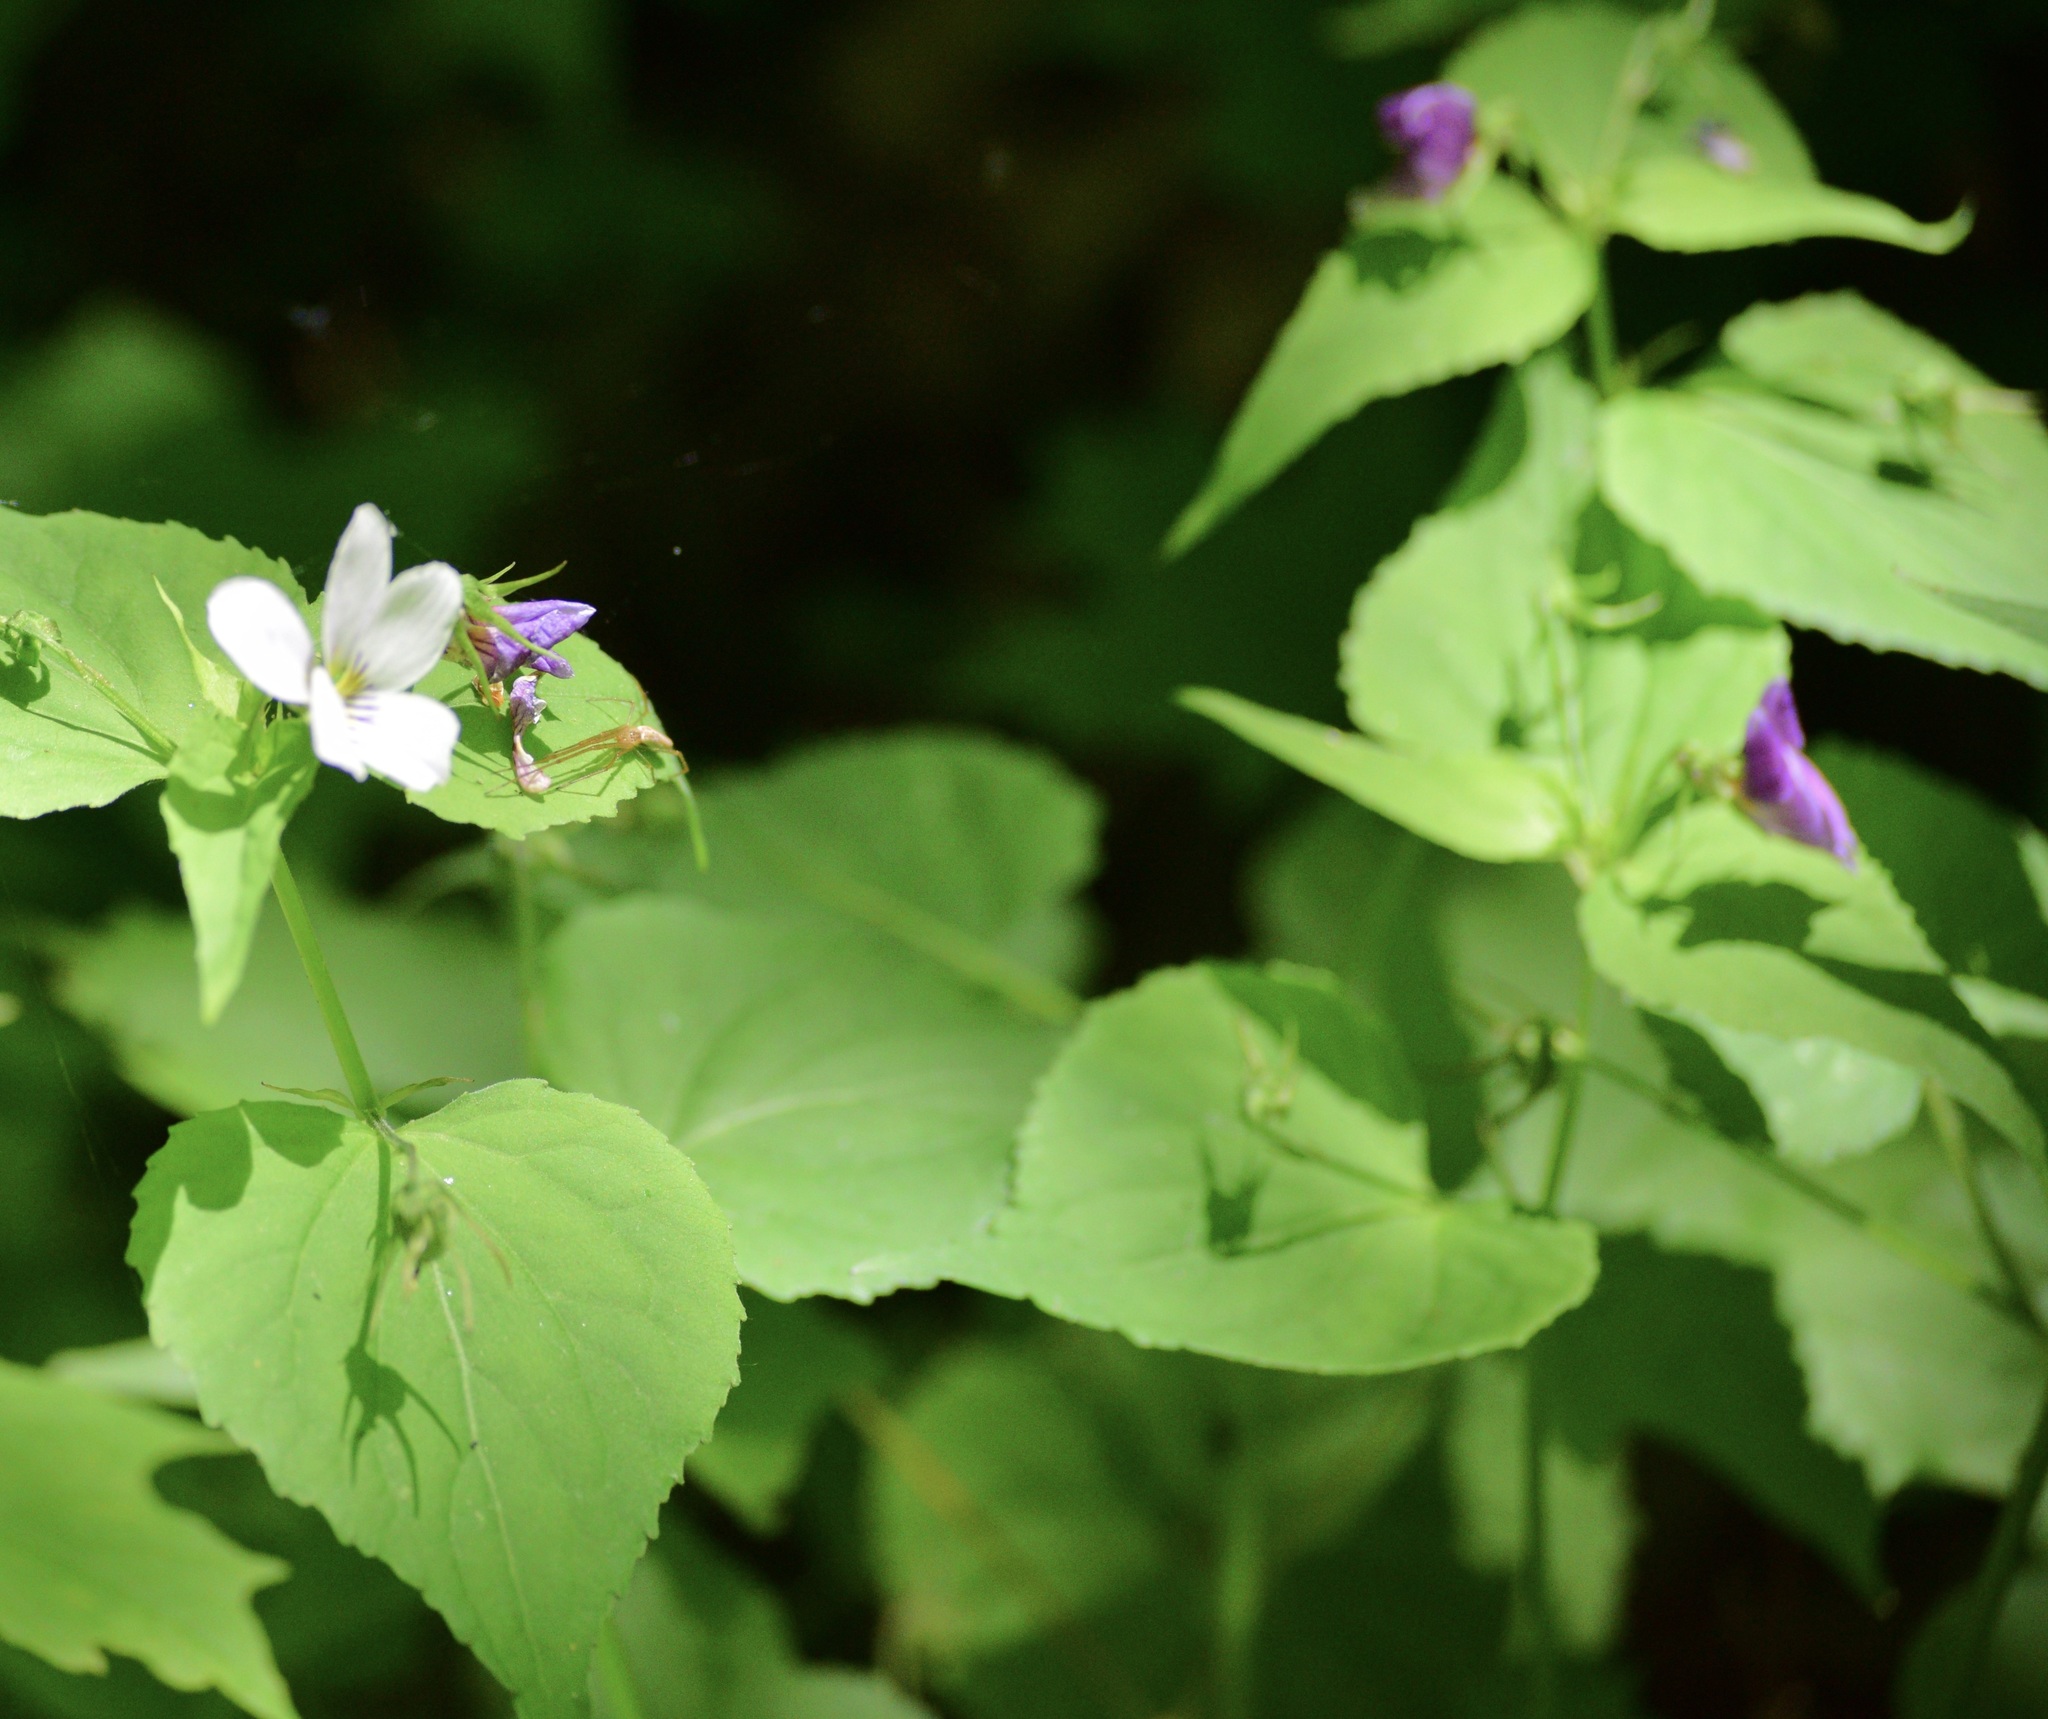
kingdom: Plantae
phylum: Tracheophyta
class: Magnoliopsida
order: Malpighiales
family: Violaceae
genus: Viola
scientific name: Viola canadensis
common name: Canada violet
